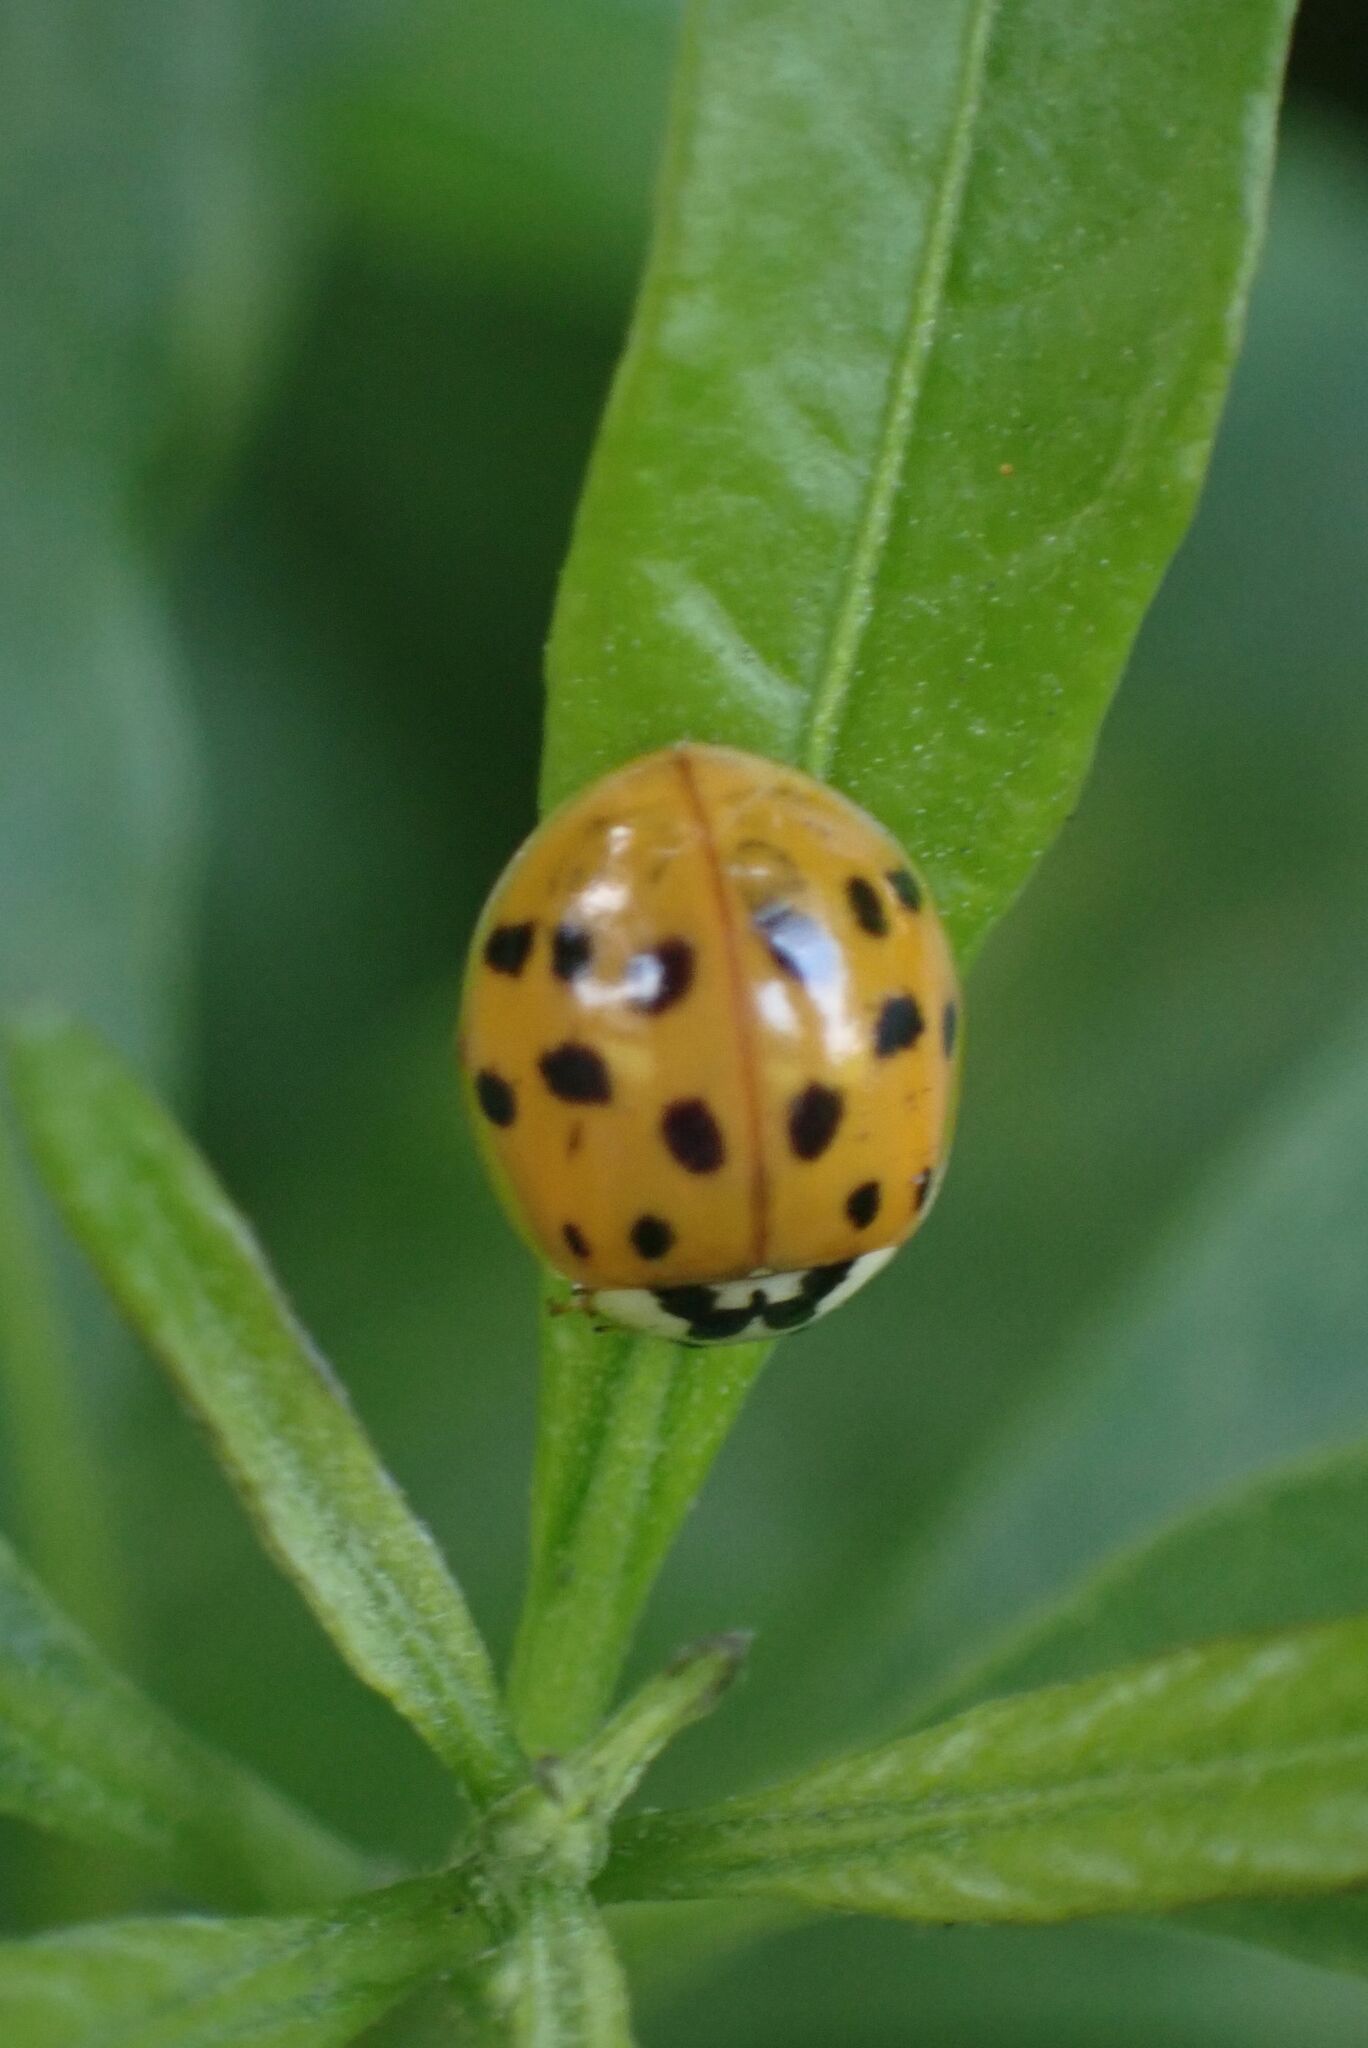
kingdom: Animalia
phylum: Arthropoda
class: Insecta
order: Coleoptera
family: Coccinellidae
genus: Harmonia
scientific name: Harmonia axyridis
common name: Harlequin ladybird
